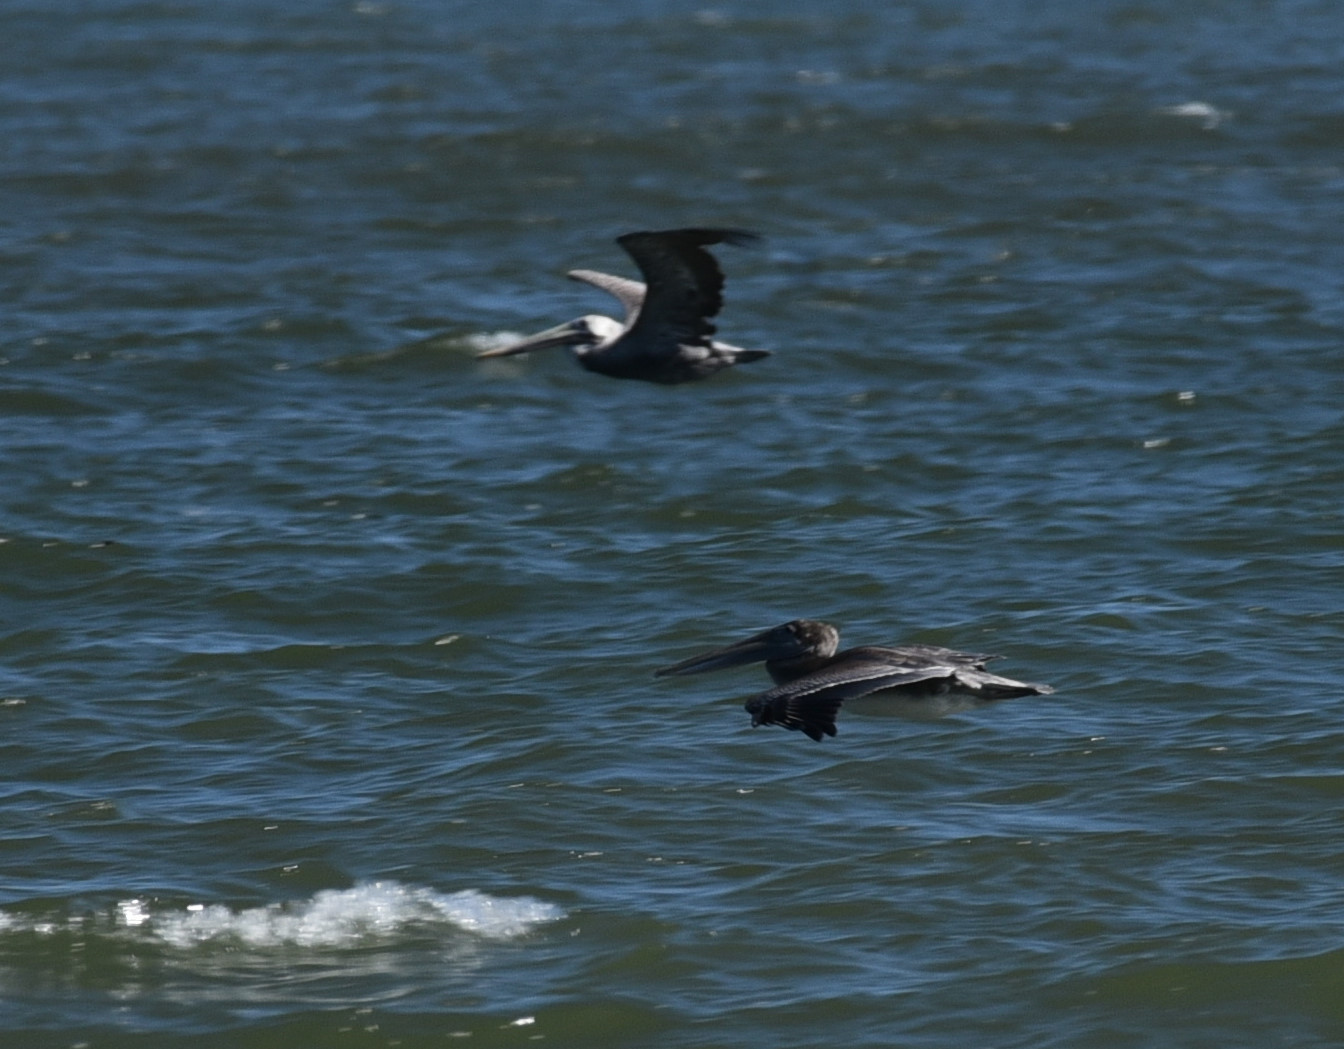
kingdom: Animalia
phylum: Chordata
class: Aves
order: Pelecaniformes
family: Pelecanidae
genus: Pelecanus
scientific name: Pelecanus occidentalis
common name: Brown pelican
